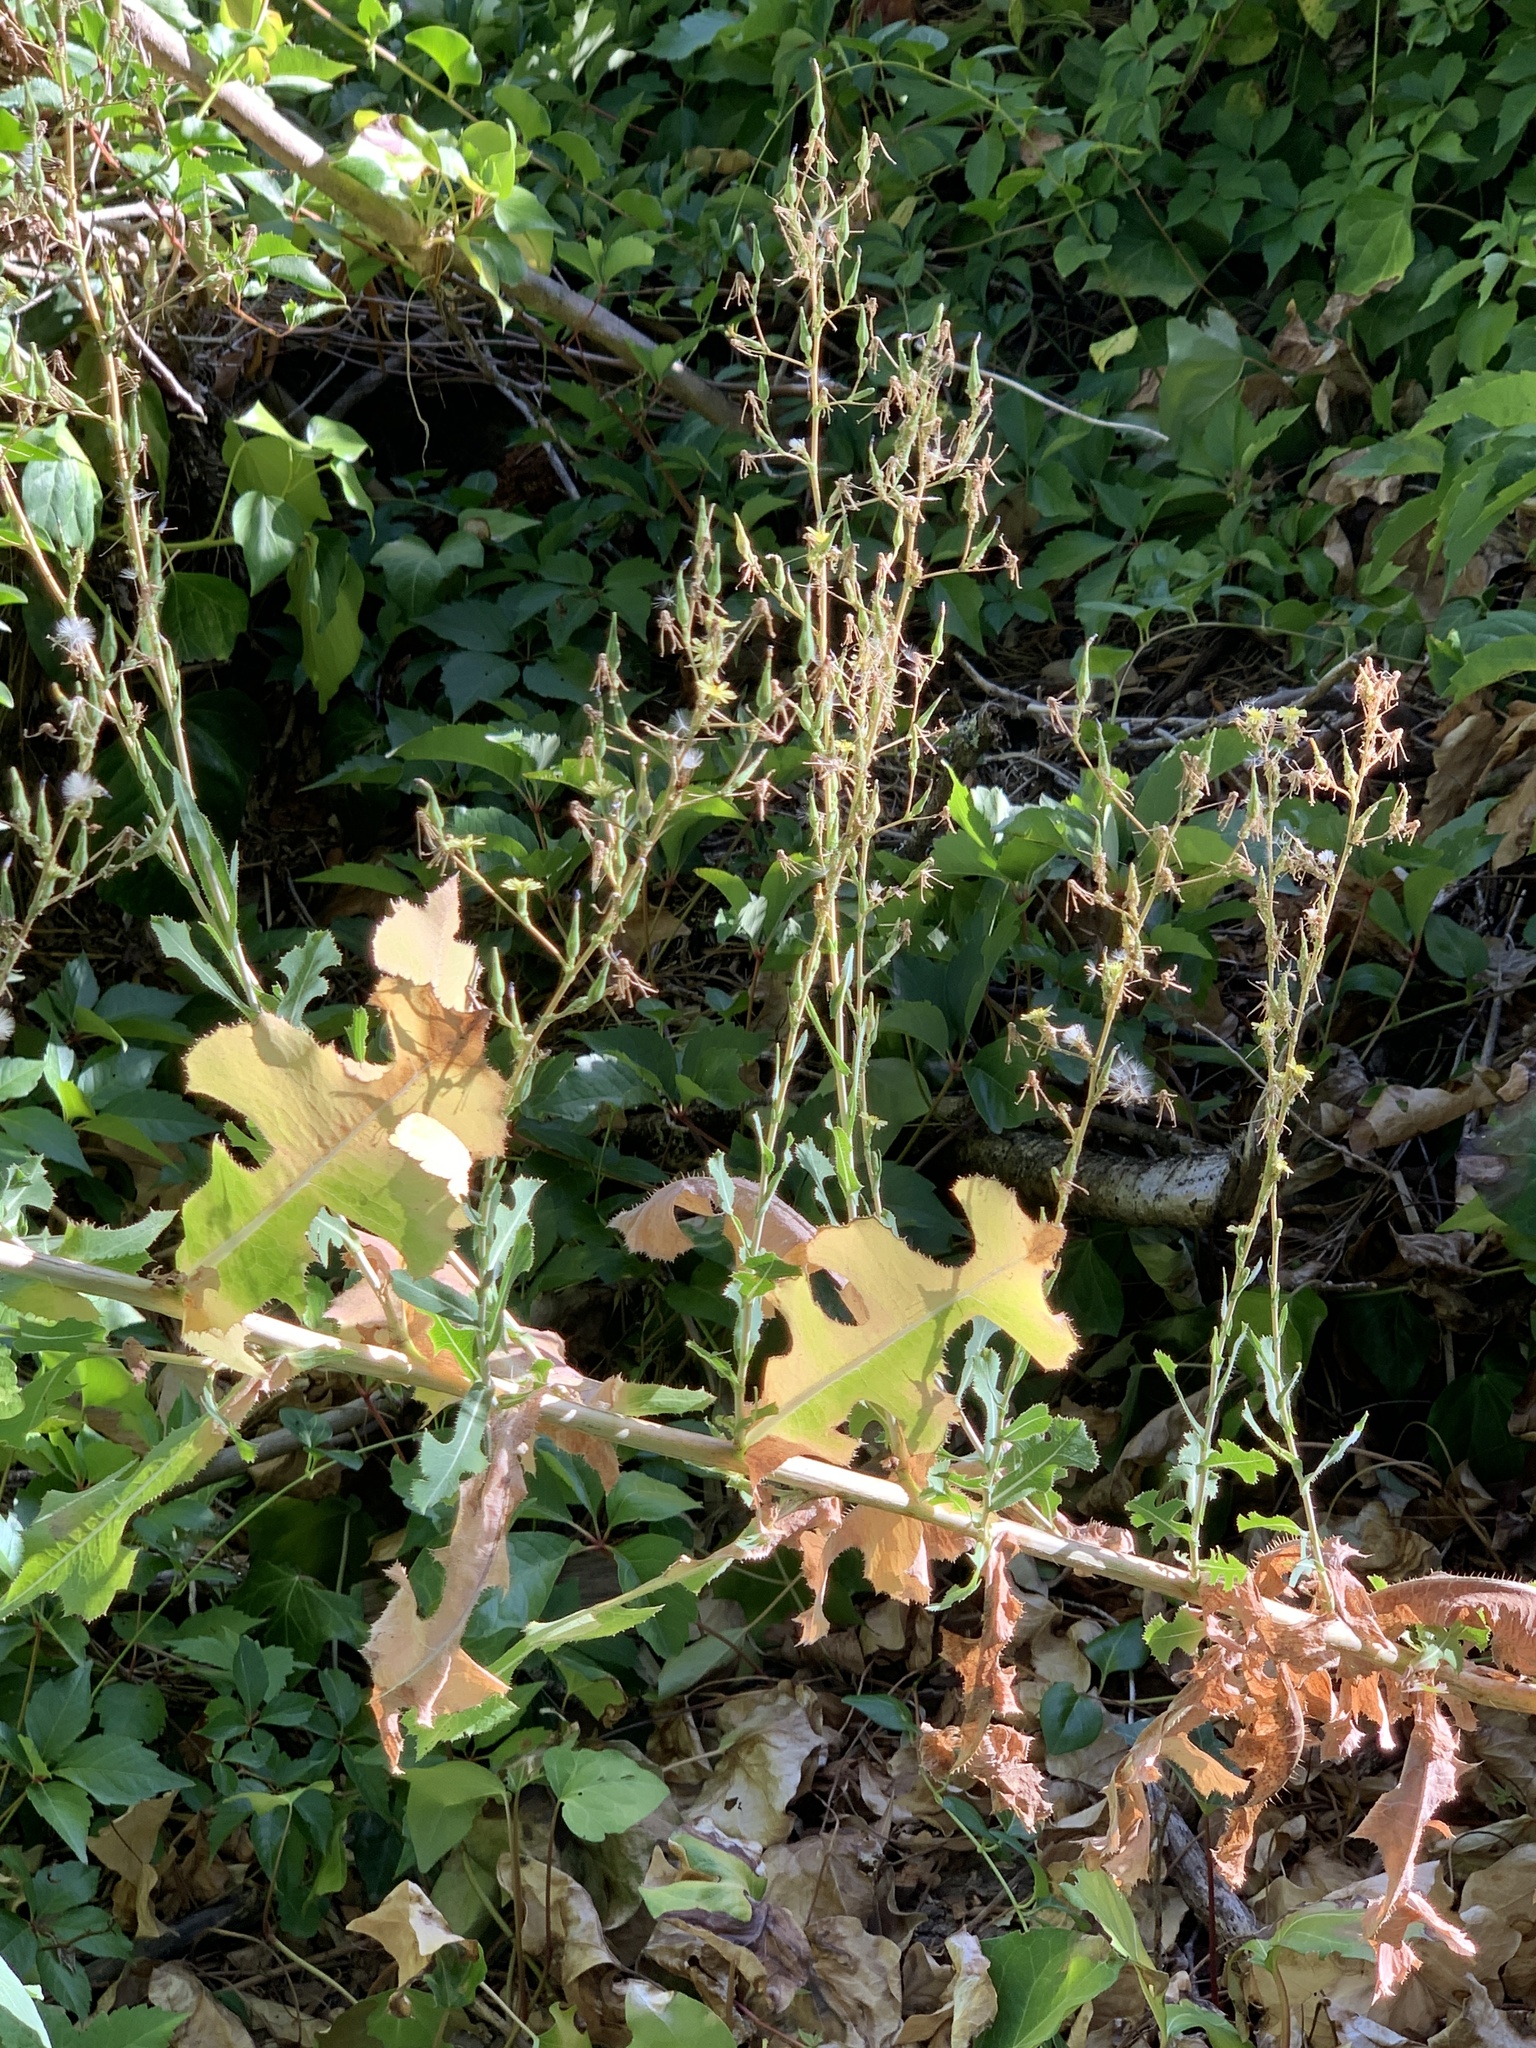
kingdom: Plantae
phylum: Tracheophyta
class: Magnoliopsida
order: Asterales
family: Asteraceae
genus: Lactuca
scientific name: Lactuca serriola
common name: Prickly lettuce
